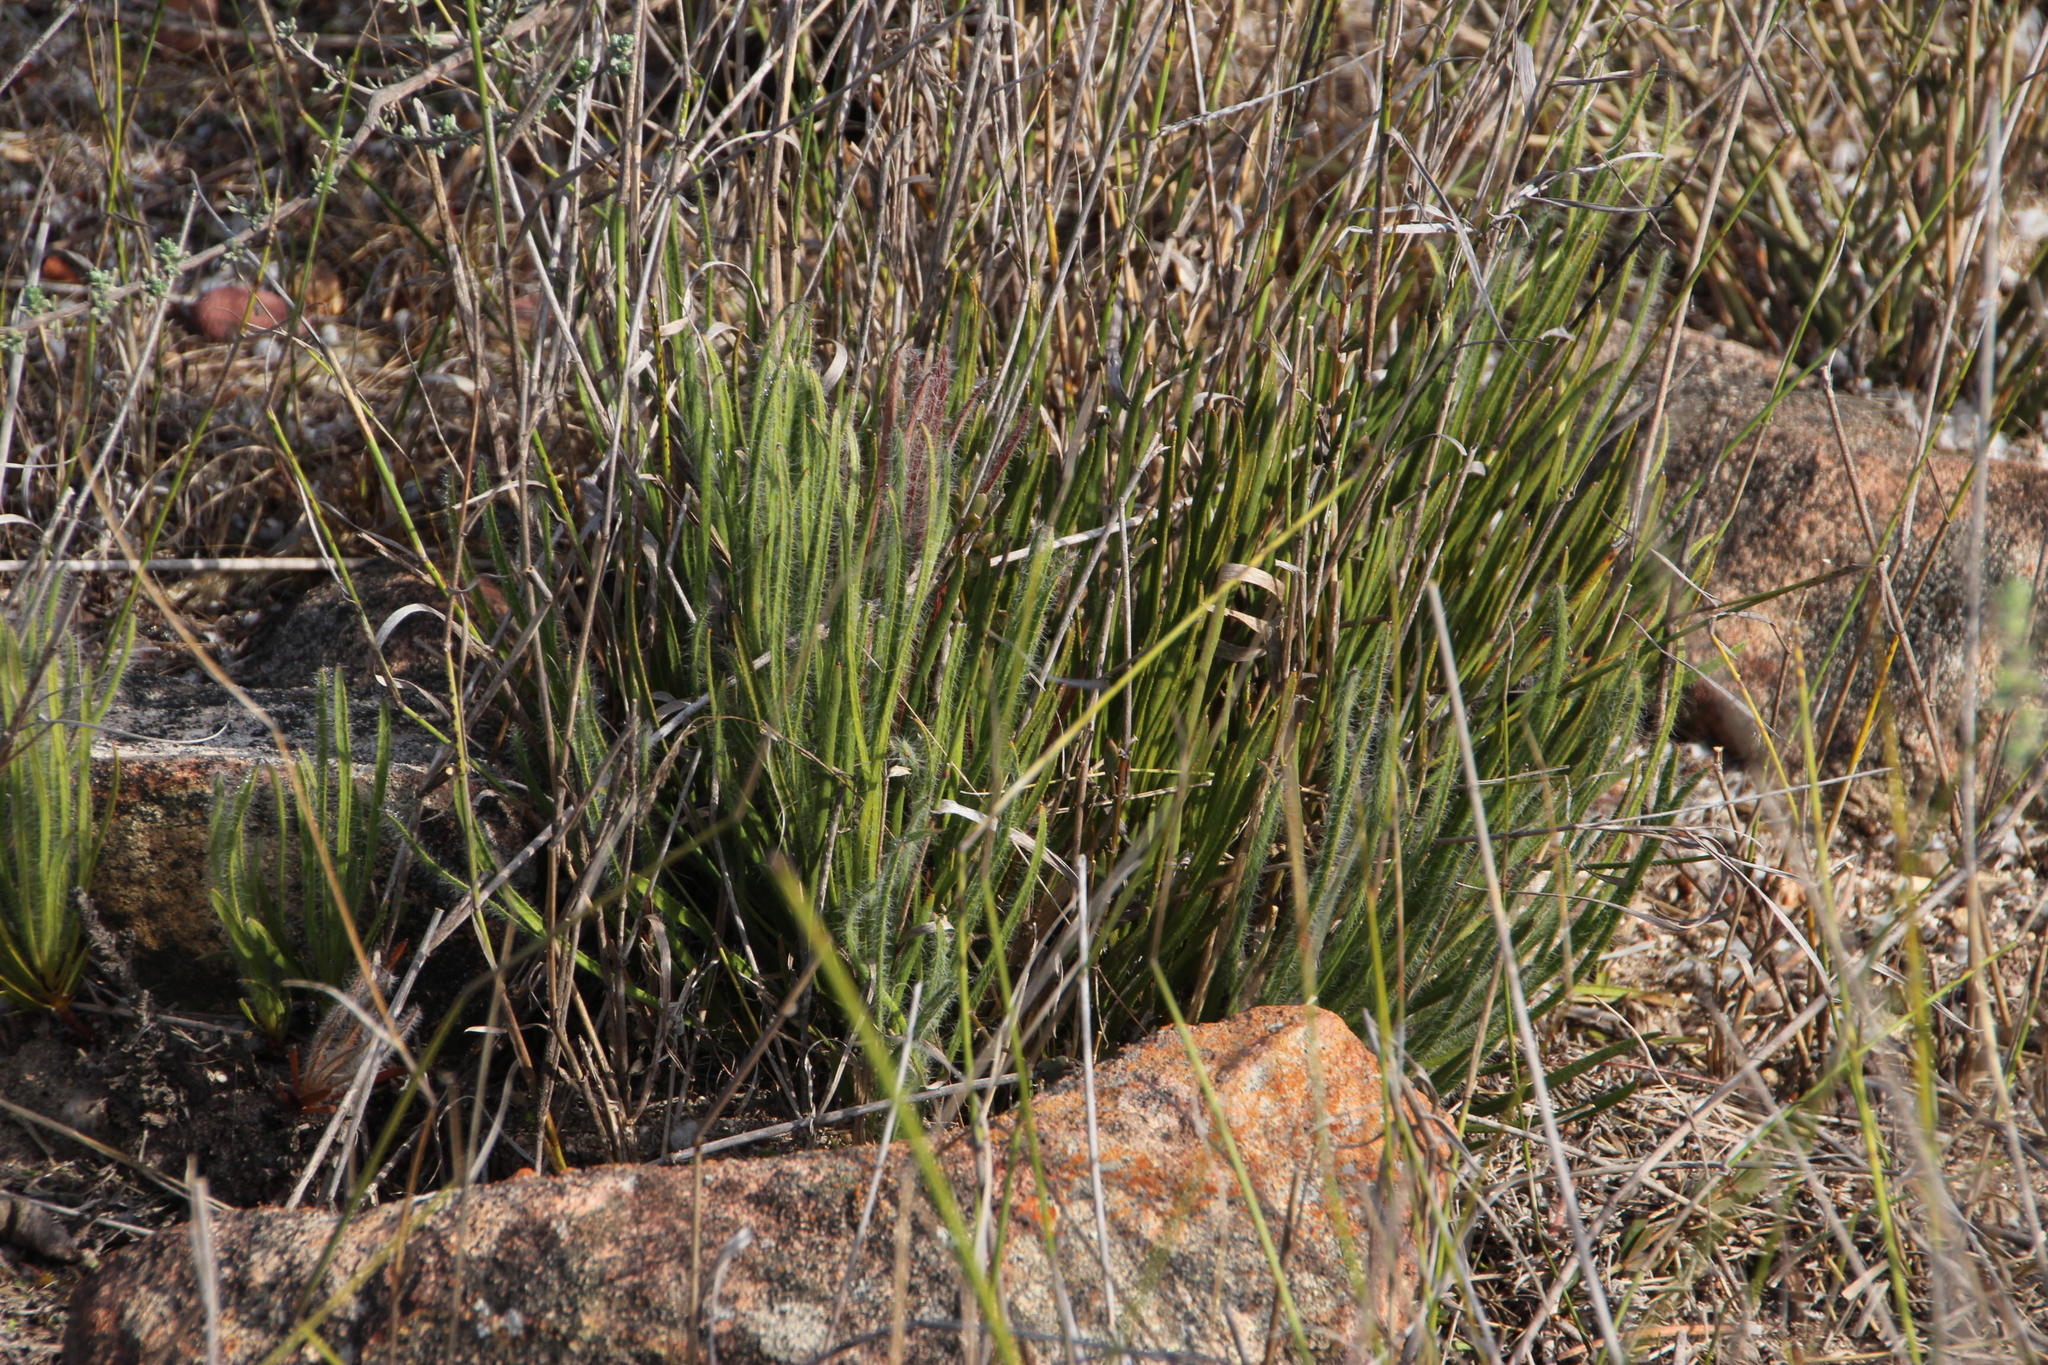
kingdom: Plantae
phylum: Tracheophyta
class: Magnoliopsida
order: Proteales
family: Proteaceae
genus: Protea
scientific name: Protea scorzonerifolia
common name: Channel-leaf sugarbush
